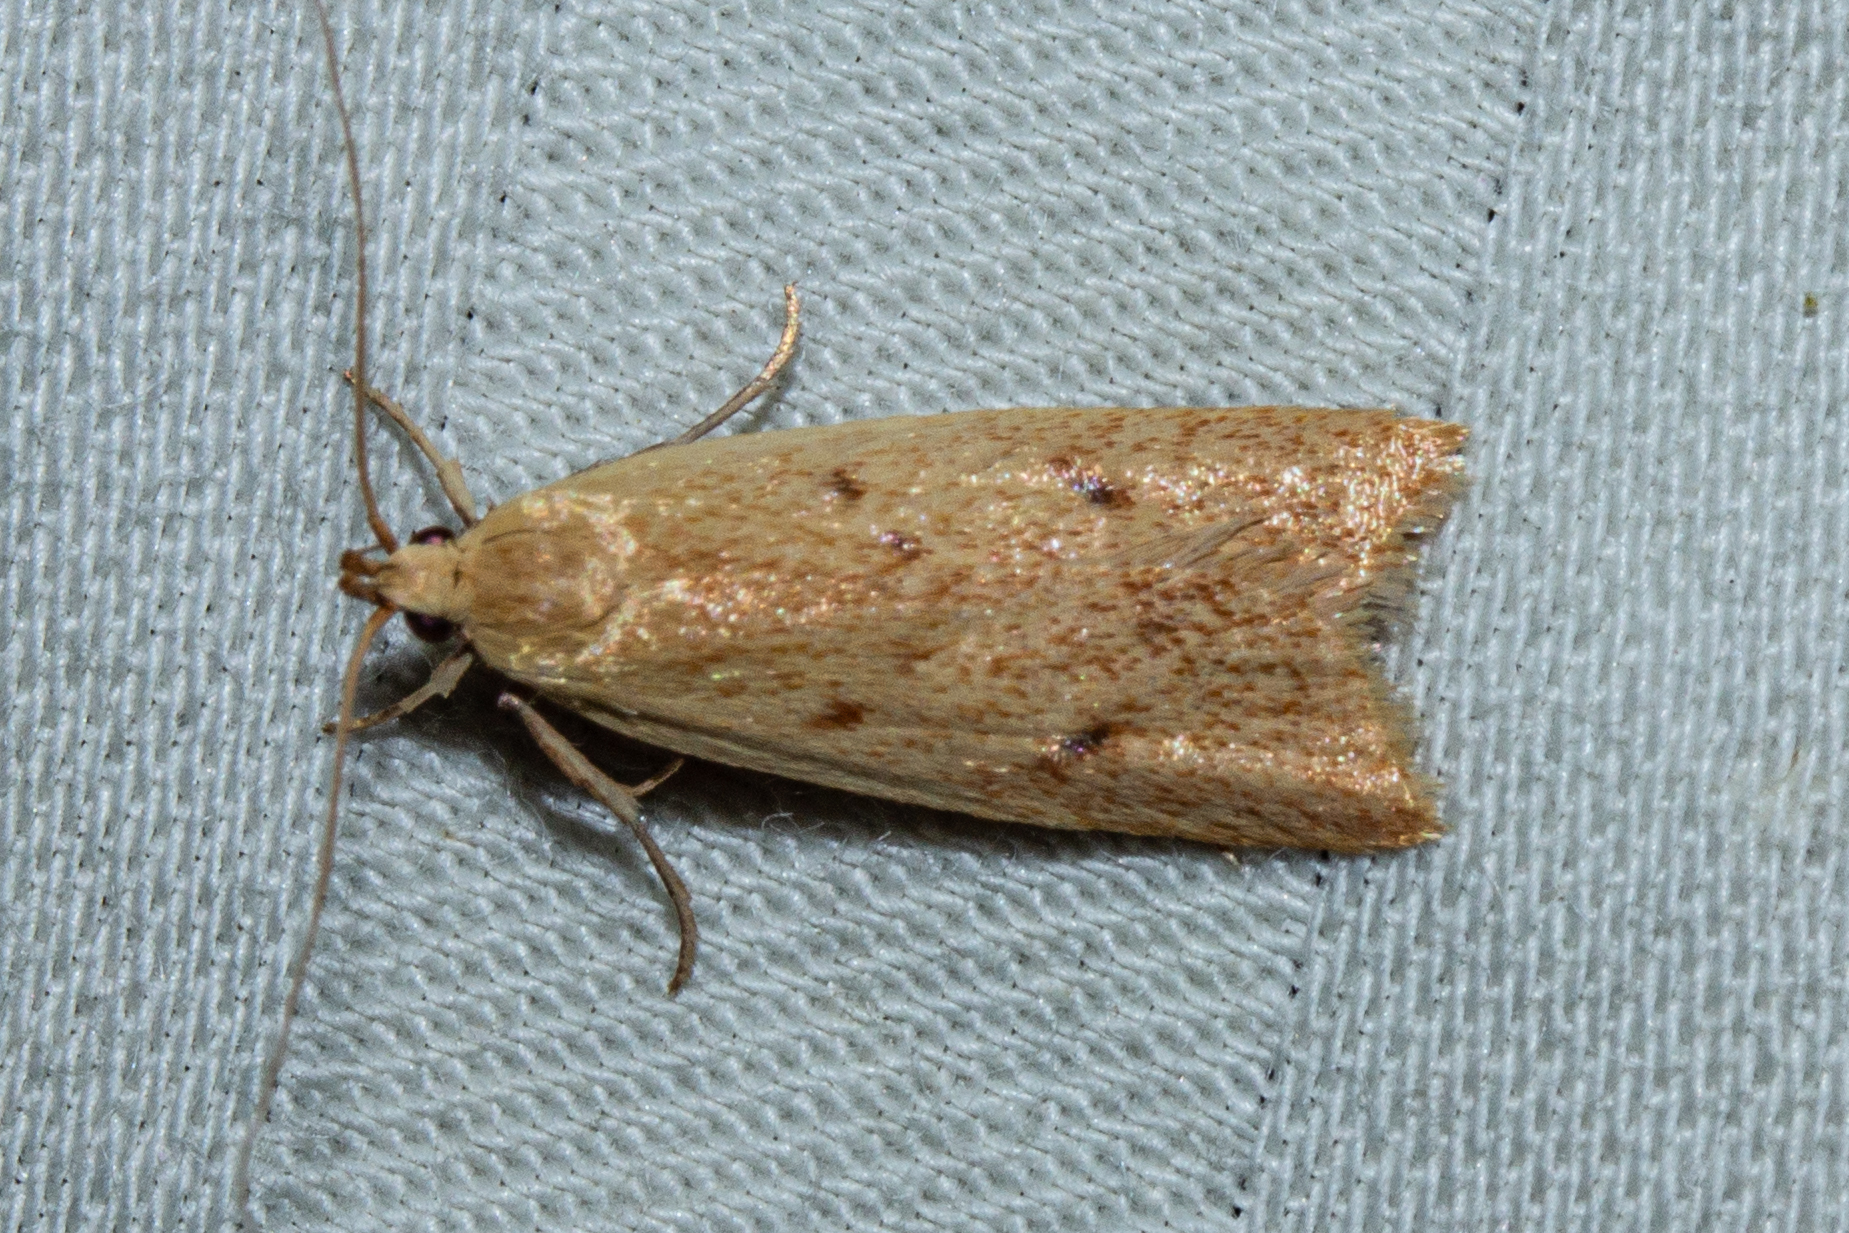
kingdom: Animalia
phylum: Arthropoda
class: Insecta
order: Lepidoptera
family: Oecophoridae
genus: Gymnobathra
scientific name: Gymnobathra sarcoxantha
